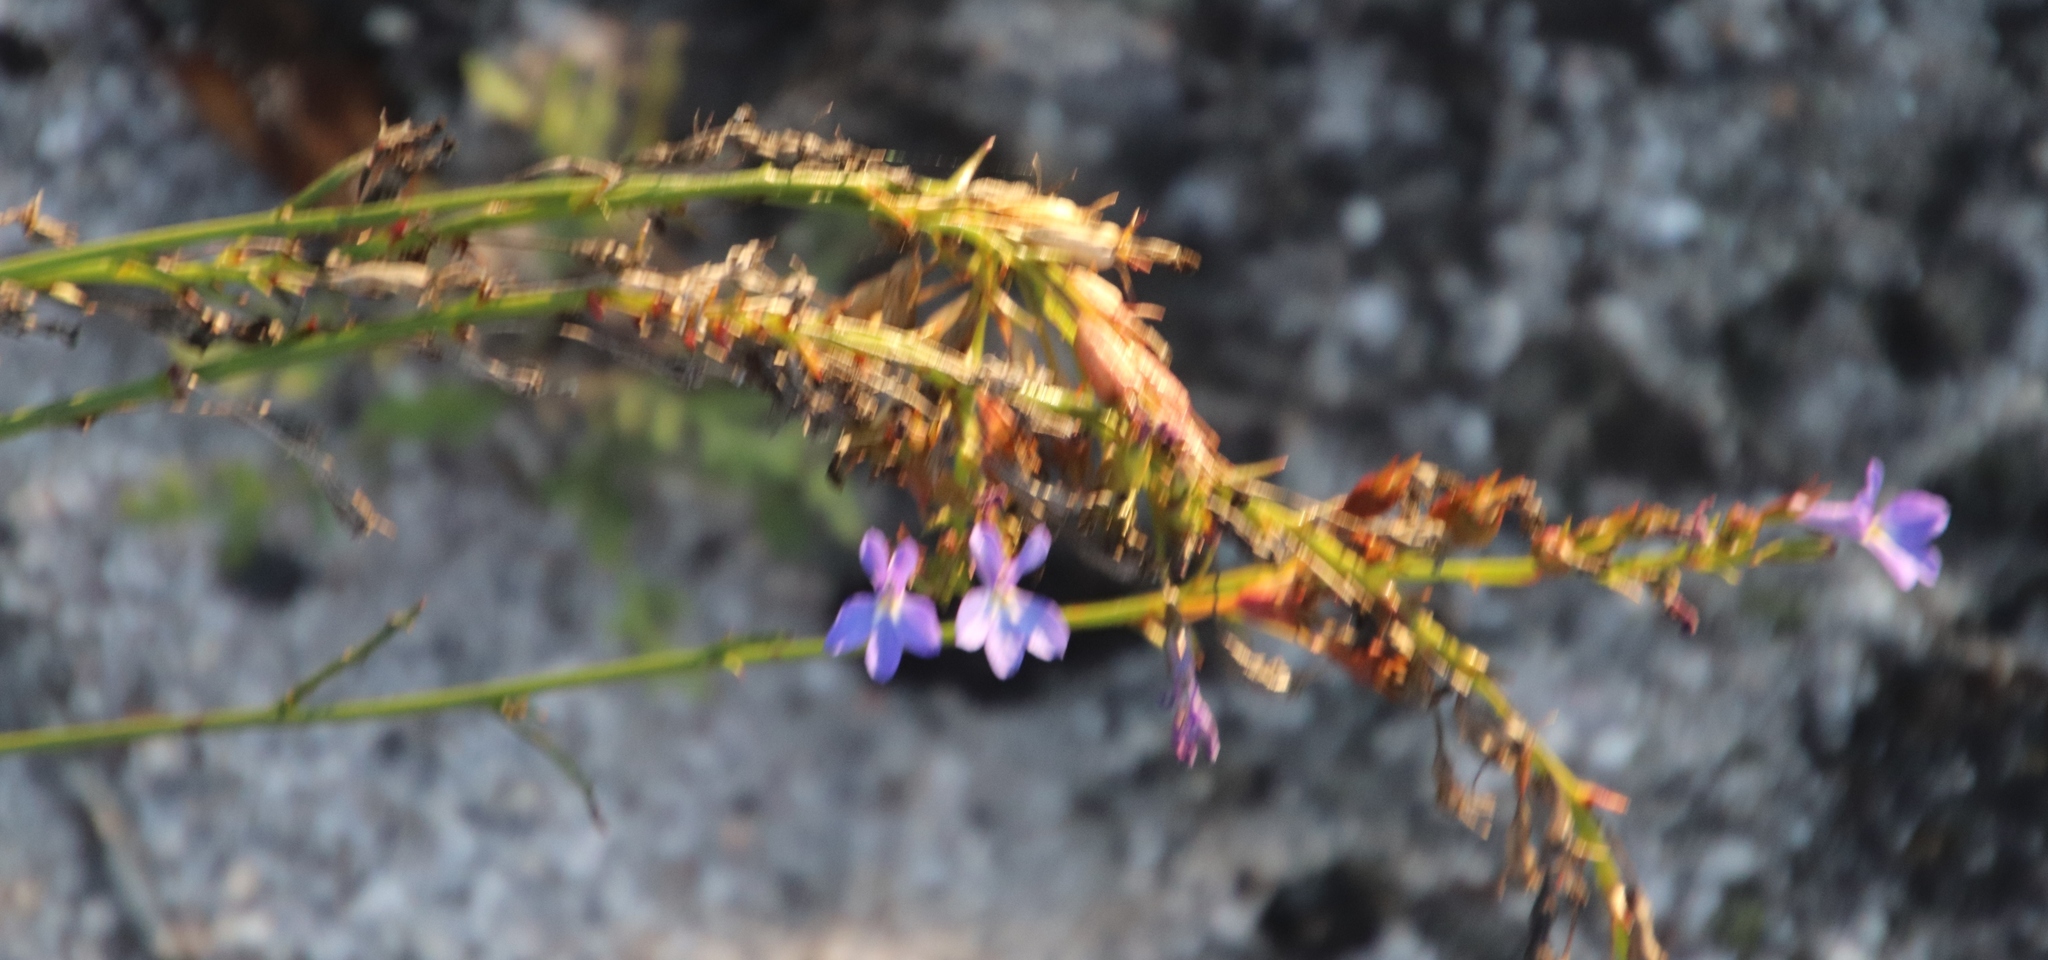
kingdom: Plantae
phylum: Tracheophyta
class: Magnoliopsida
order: Asterales
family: Campanulaceae
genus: Lobelia
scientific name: Lobelia comosa
